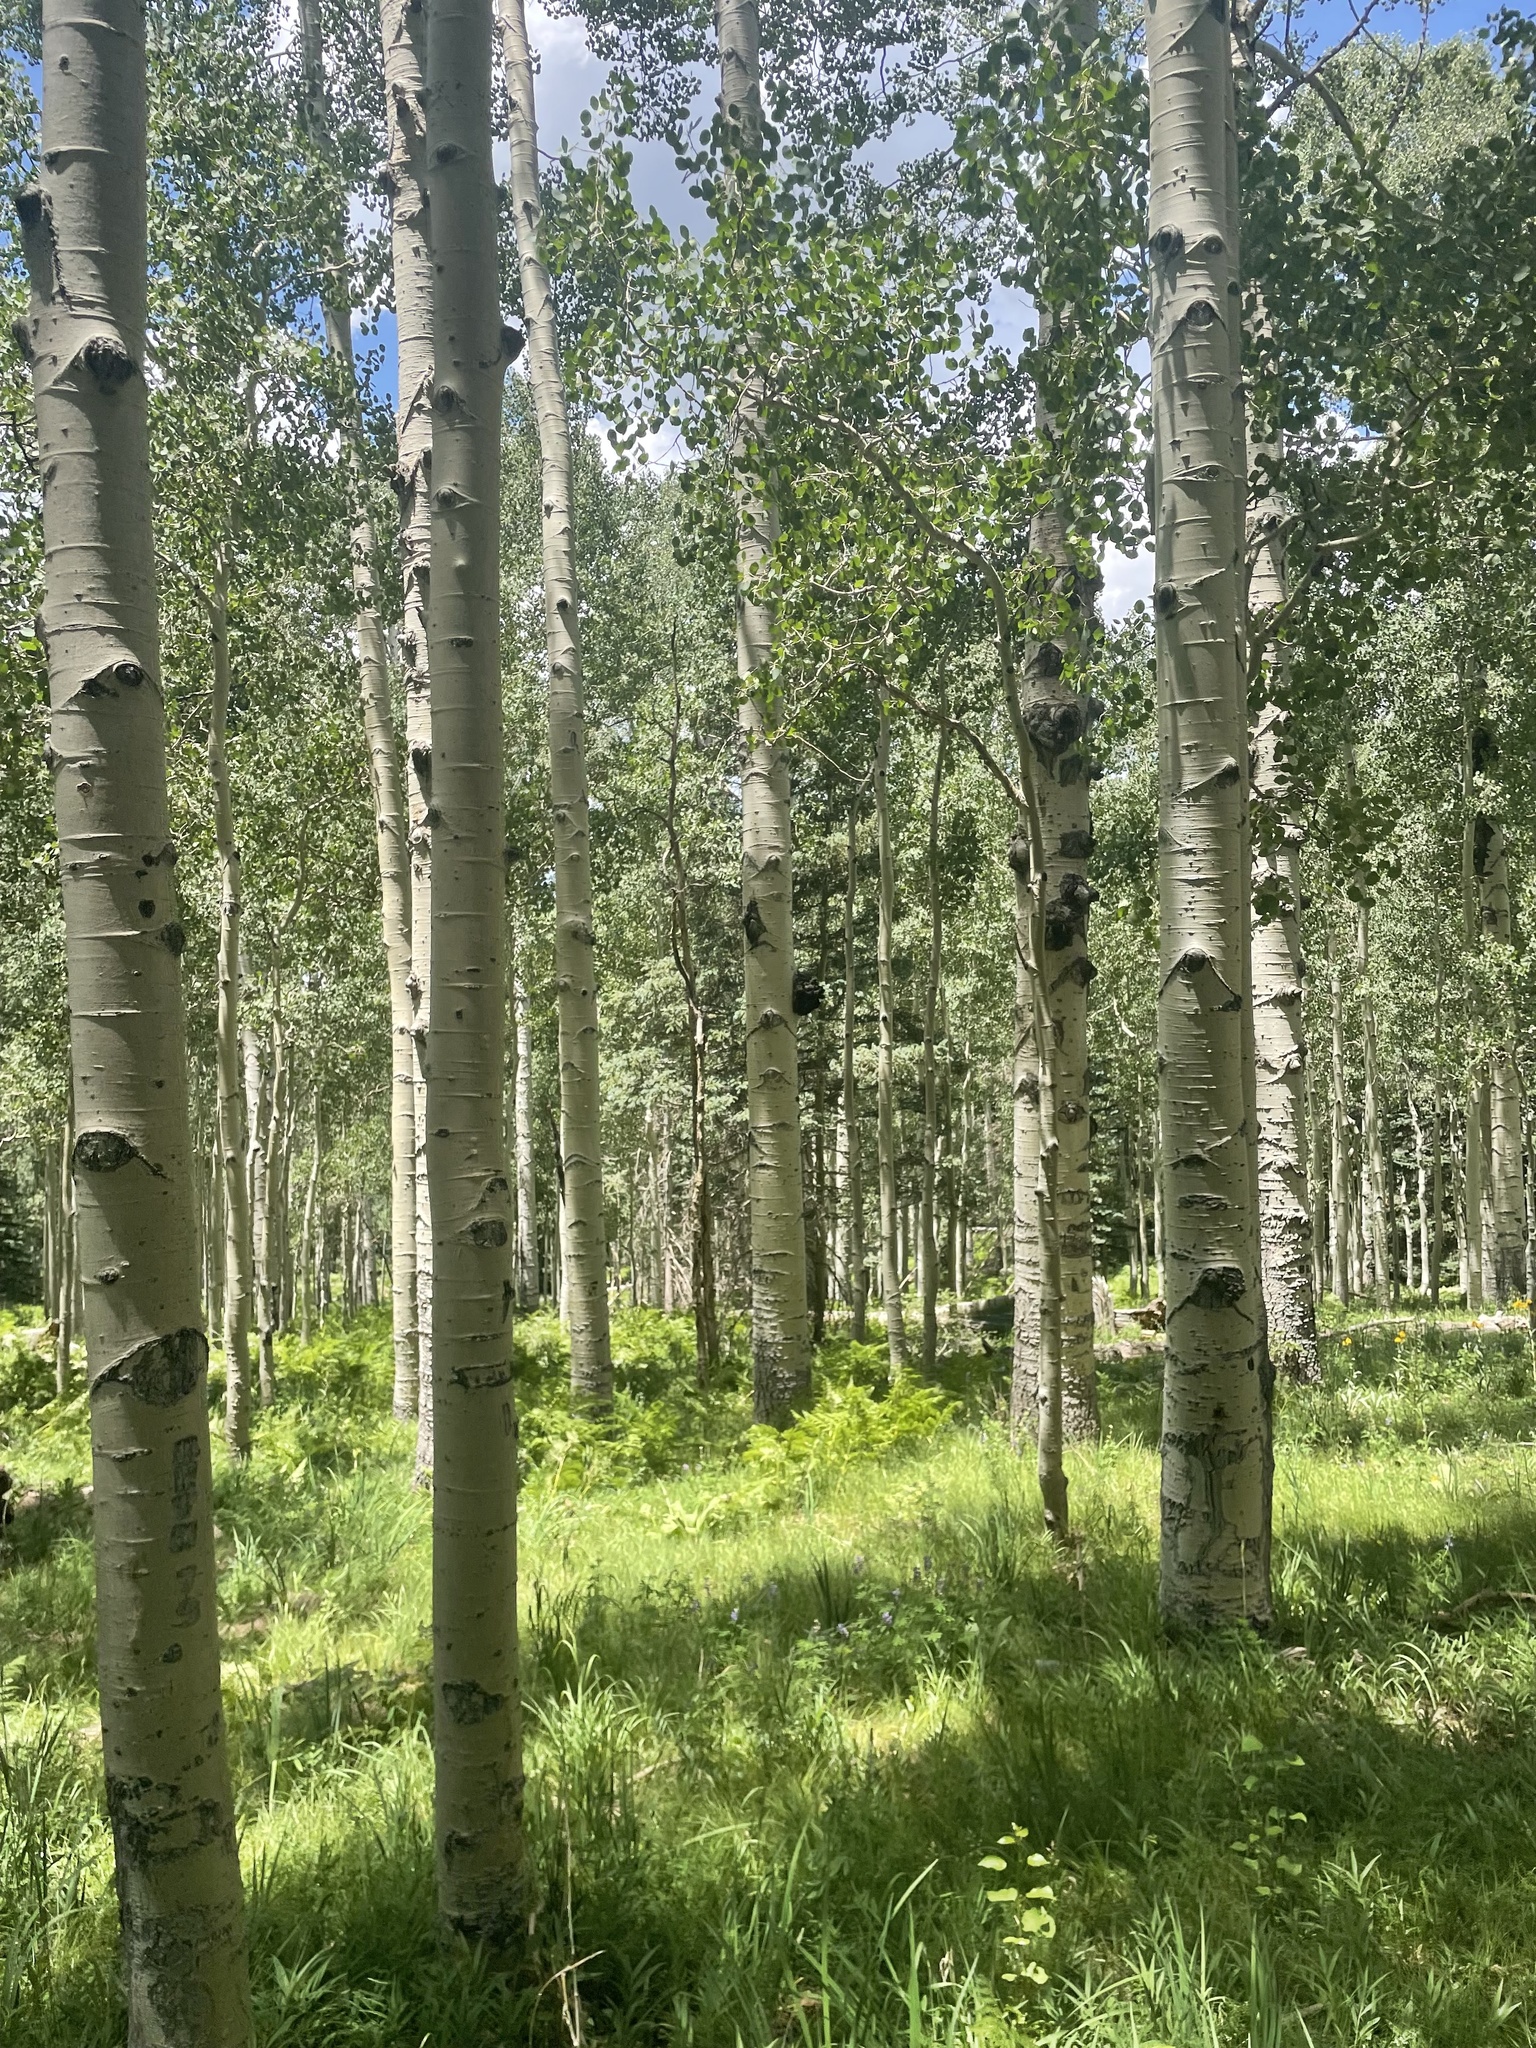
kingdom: Plantae
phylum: Tracheophyta
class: Magnoliopsida
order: Malpighiales
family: Salicaceae
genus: Populus
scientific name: Populus tremuloides
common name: Quaking aspen
